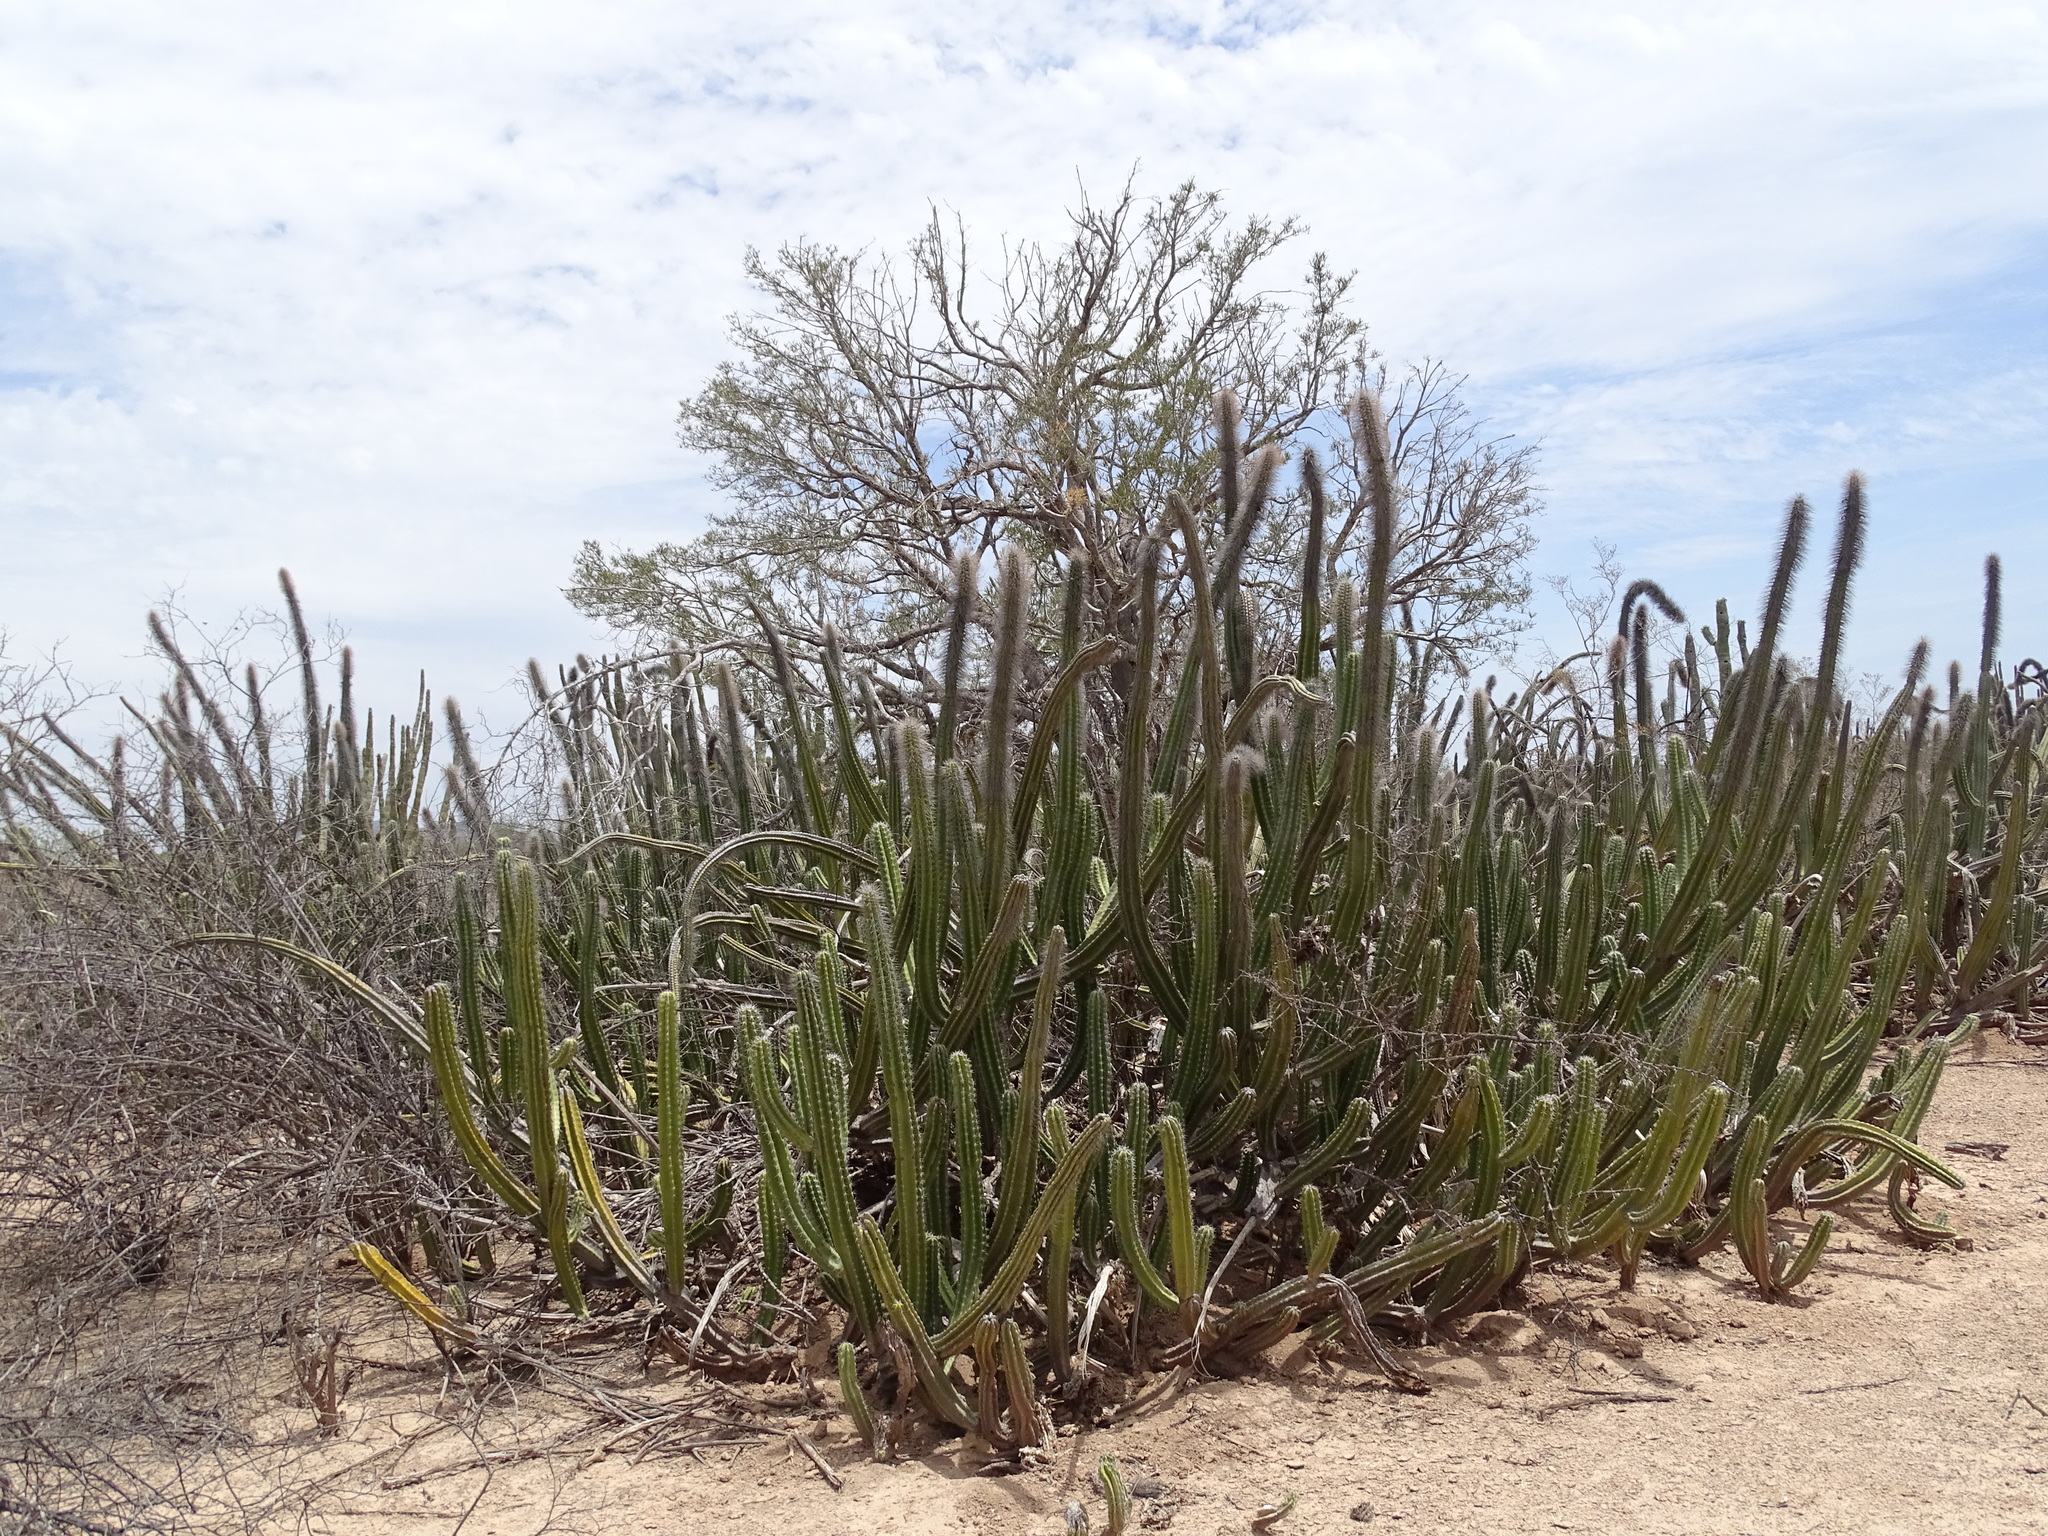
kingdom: Plantae
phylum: Tracheophyta
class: Magnoliopsida
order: Caryophyllales
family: Cactaceae
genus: Pachycereus
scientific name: Pachycereus schottii
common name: Senita cactus
